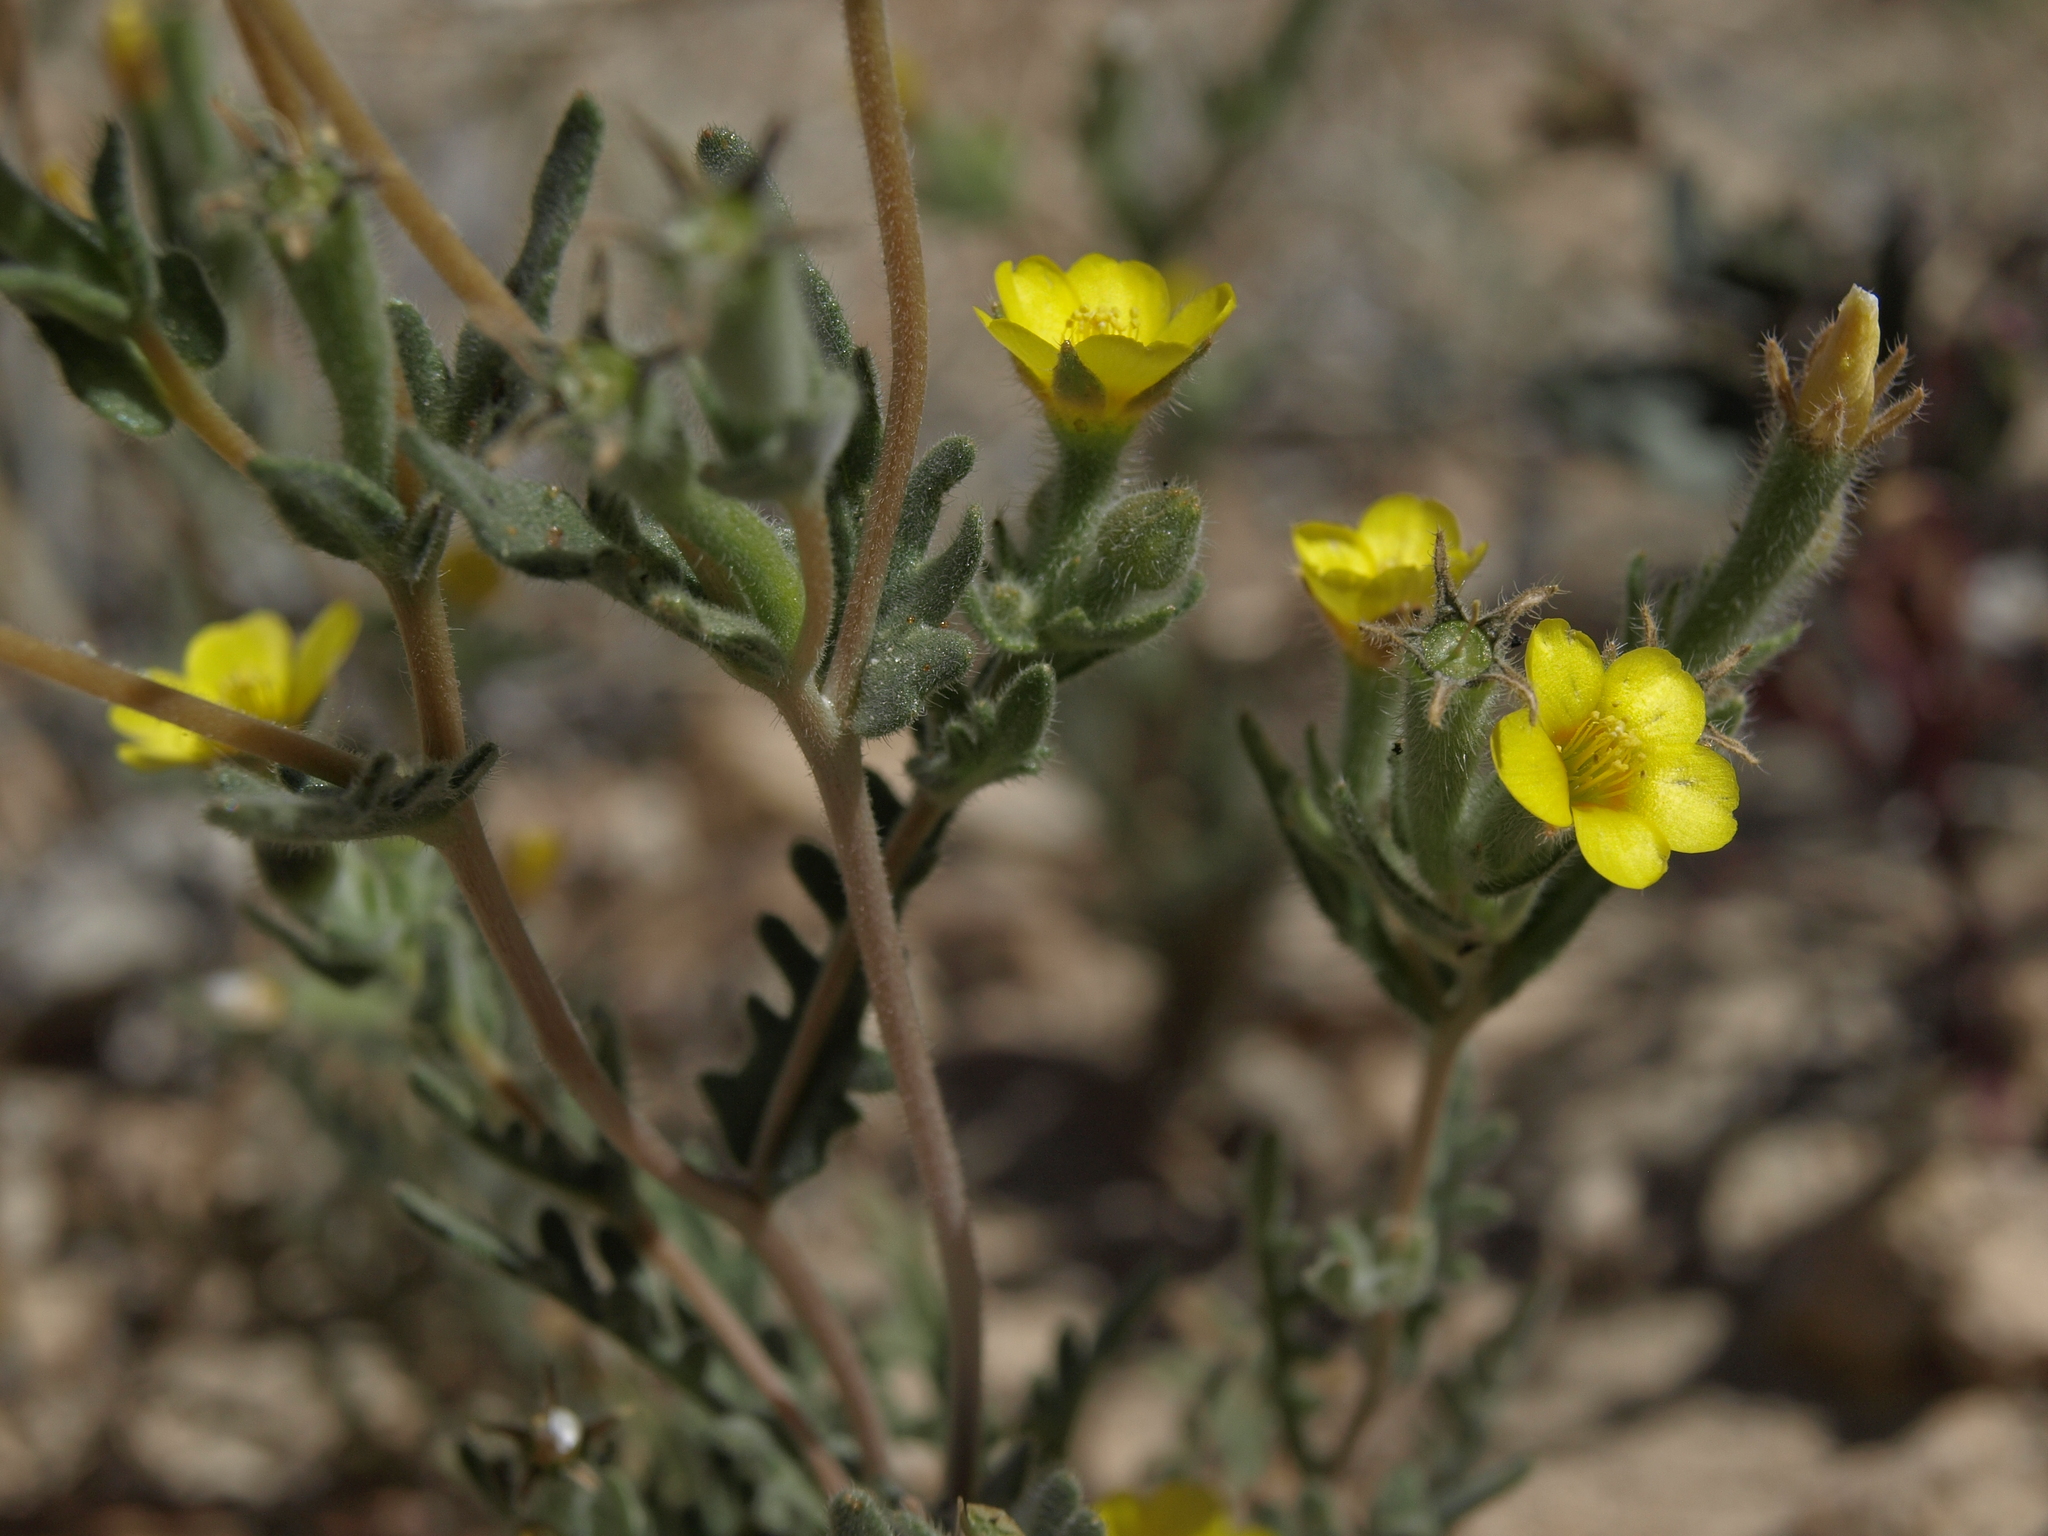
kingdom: Plantae
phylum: Tracheophyta
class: Magnoliopsida
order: Cornales
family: Loasaceae
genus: Mentzelia
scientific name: Mentzelia albicaulis
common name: White-stem blazingstar
